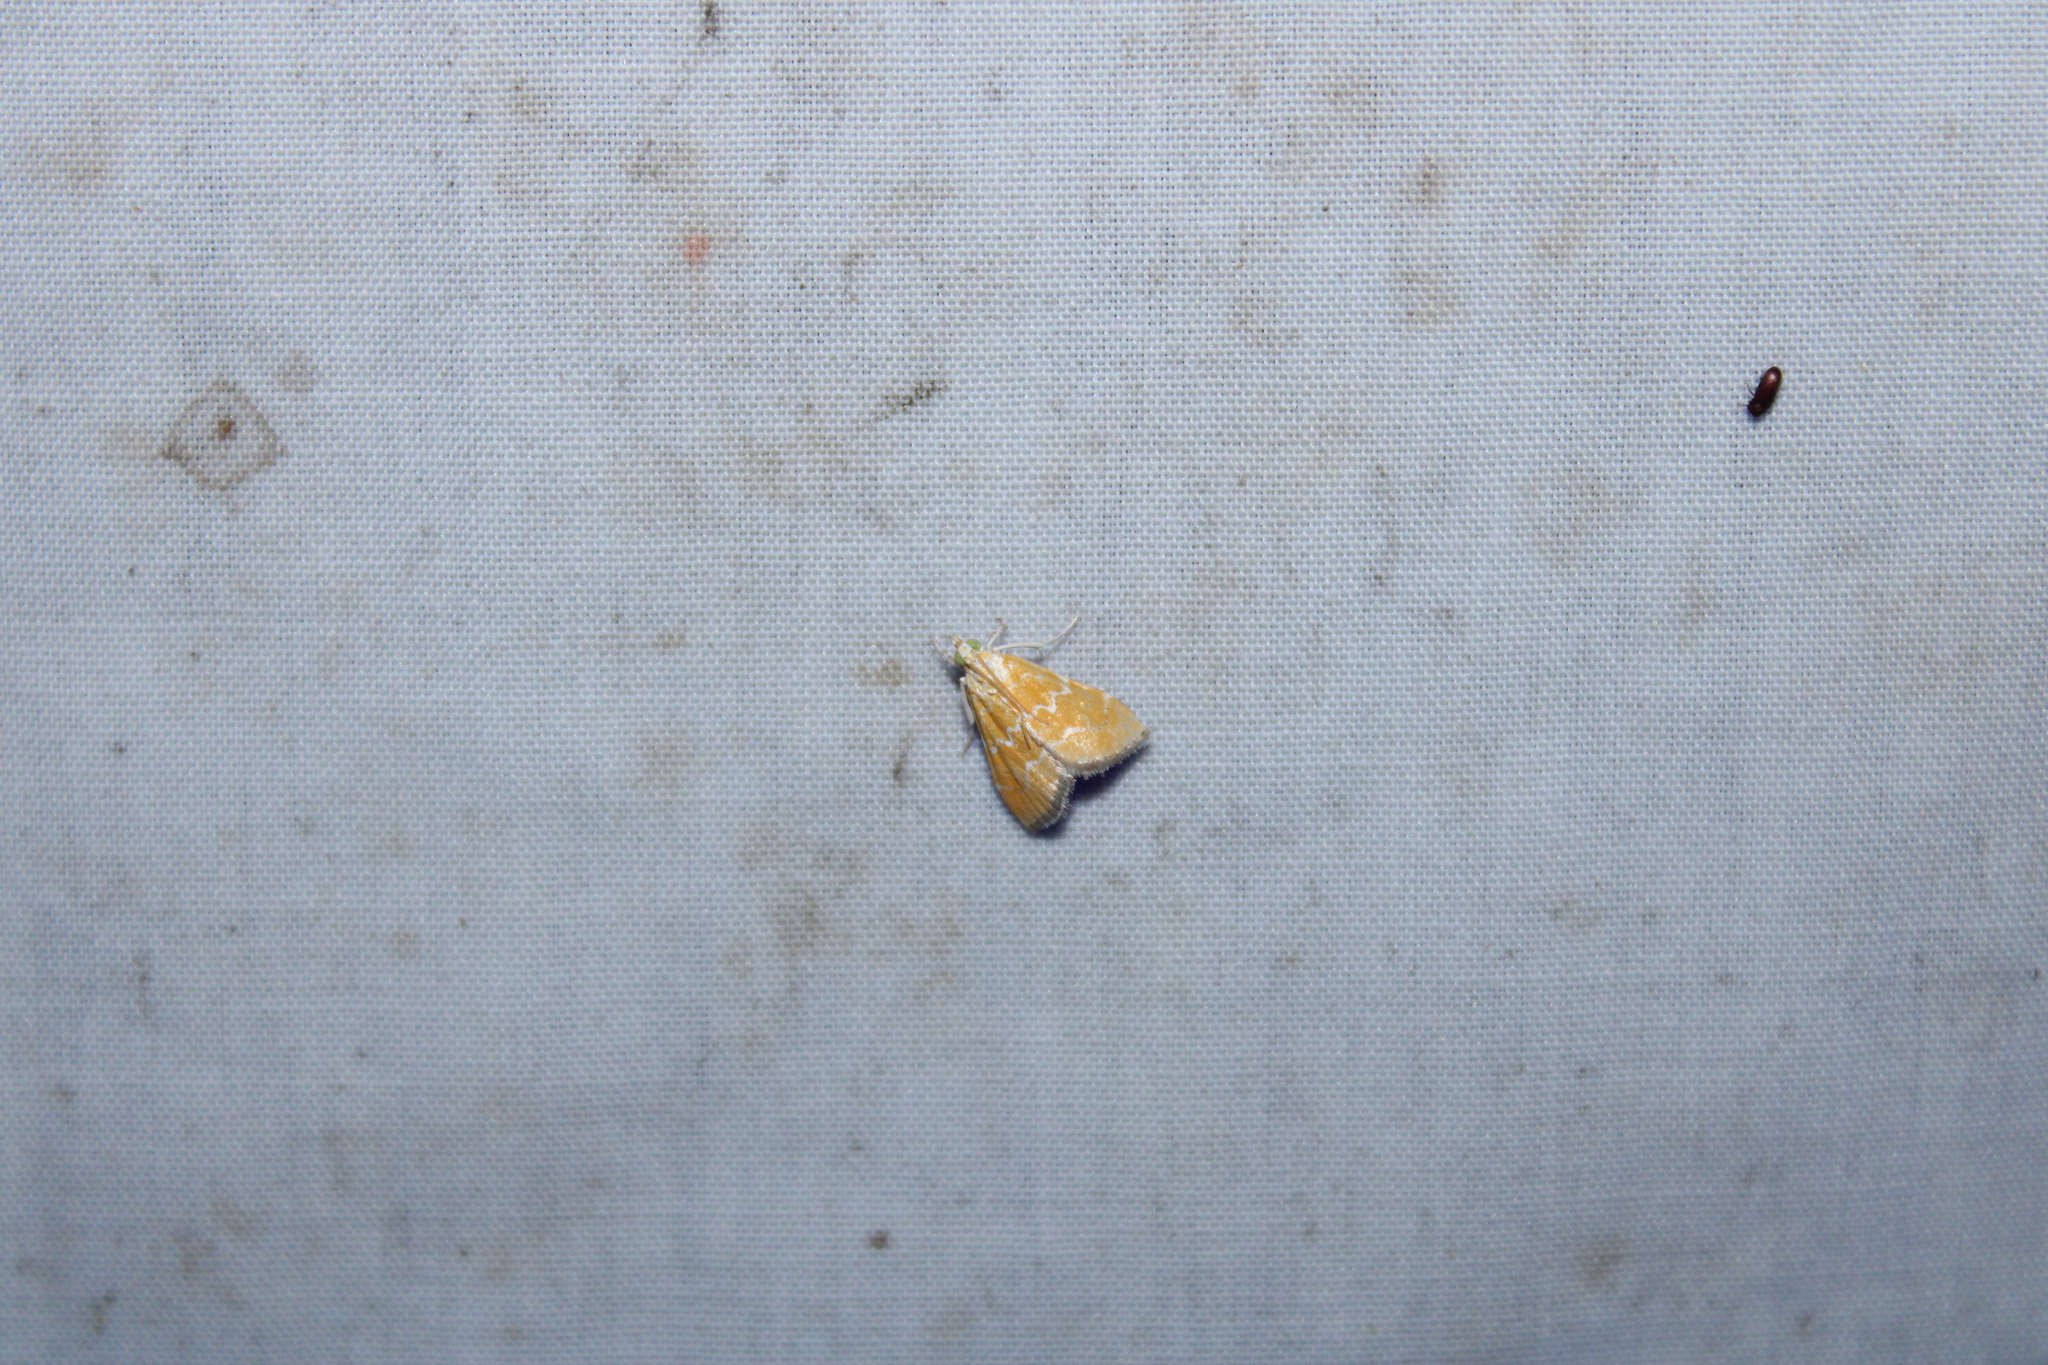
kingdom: Animalia
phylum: Arthropoda
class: Insecta
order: Lepidoptera
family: Crambidae
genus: Xanthophysa
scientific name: Xanthophysa psychicalis
